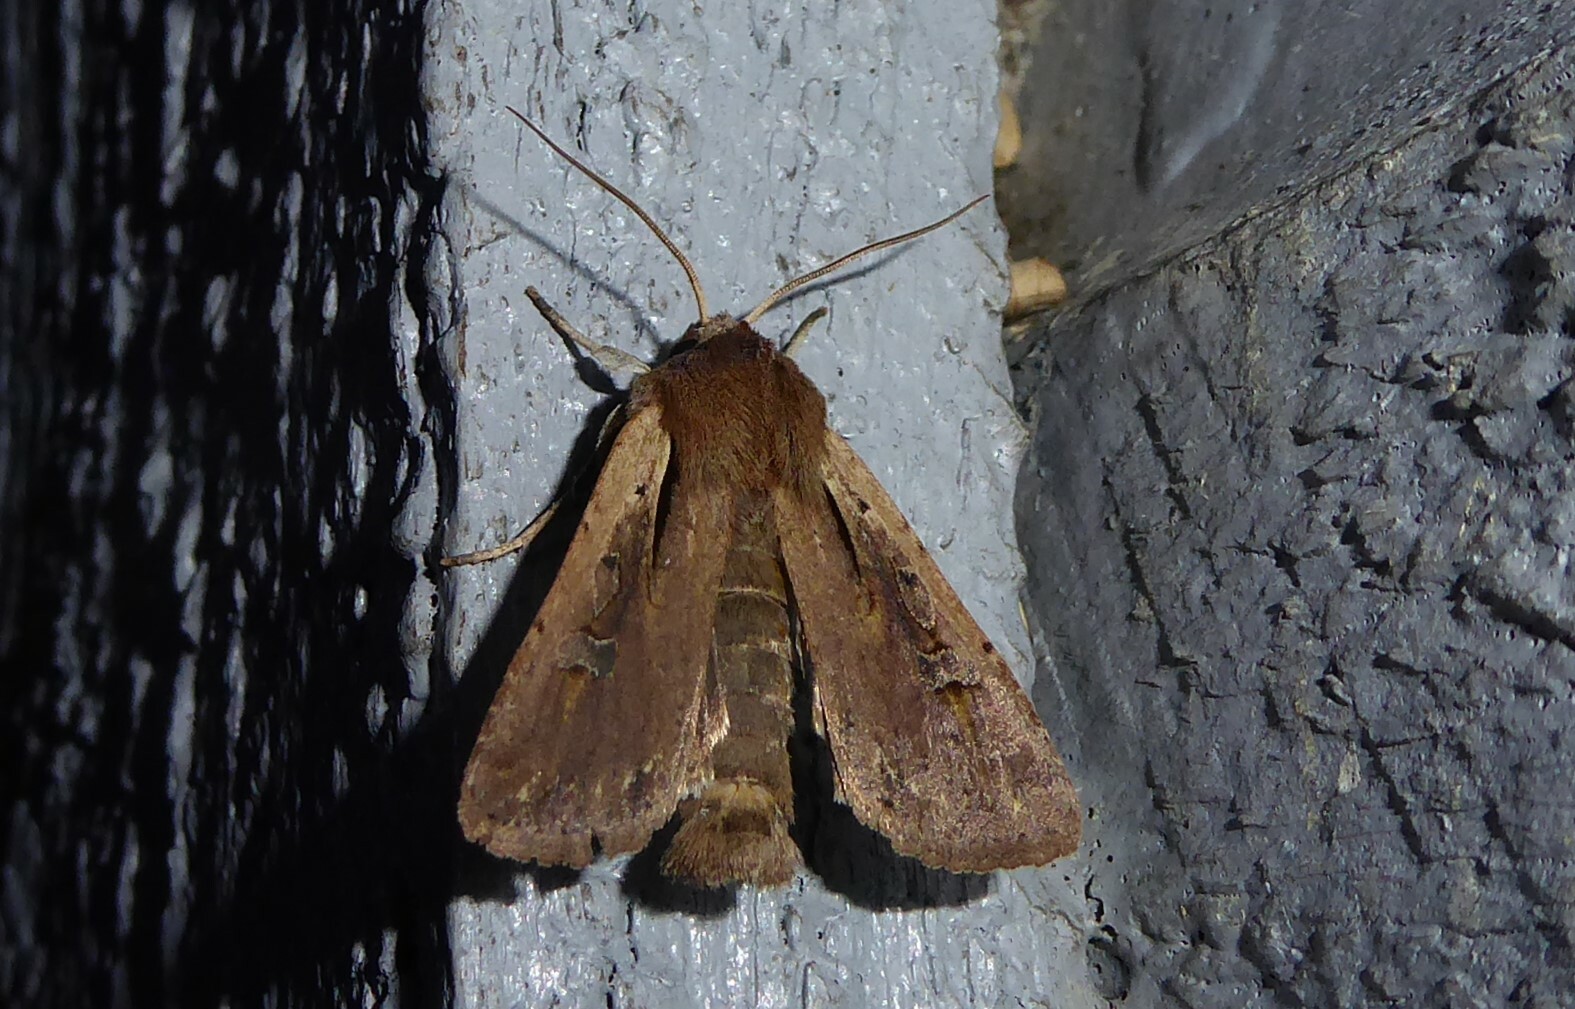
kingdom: Animalia
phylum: Arthropoda
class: Insecta
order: Lepidoptera
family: Noctuidae
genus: Ichneutica
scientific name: Ichneutica atristriga
